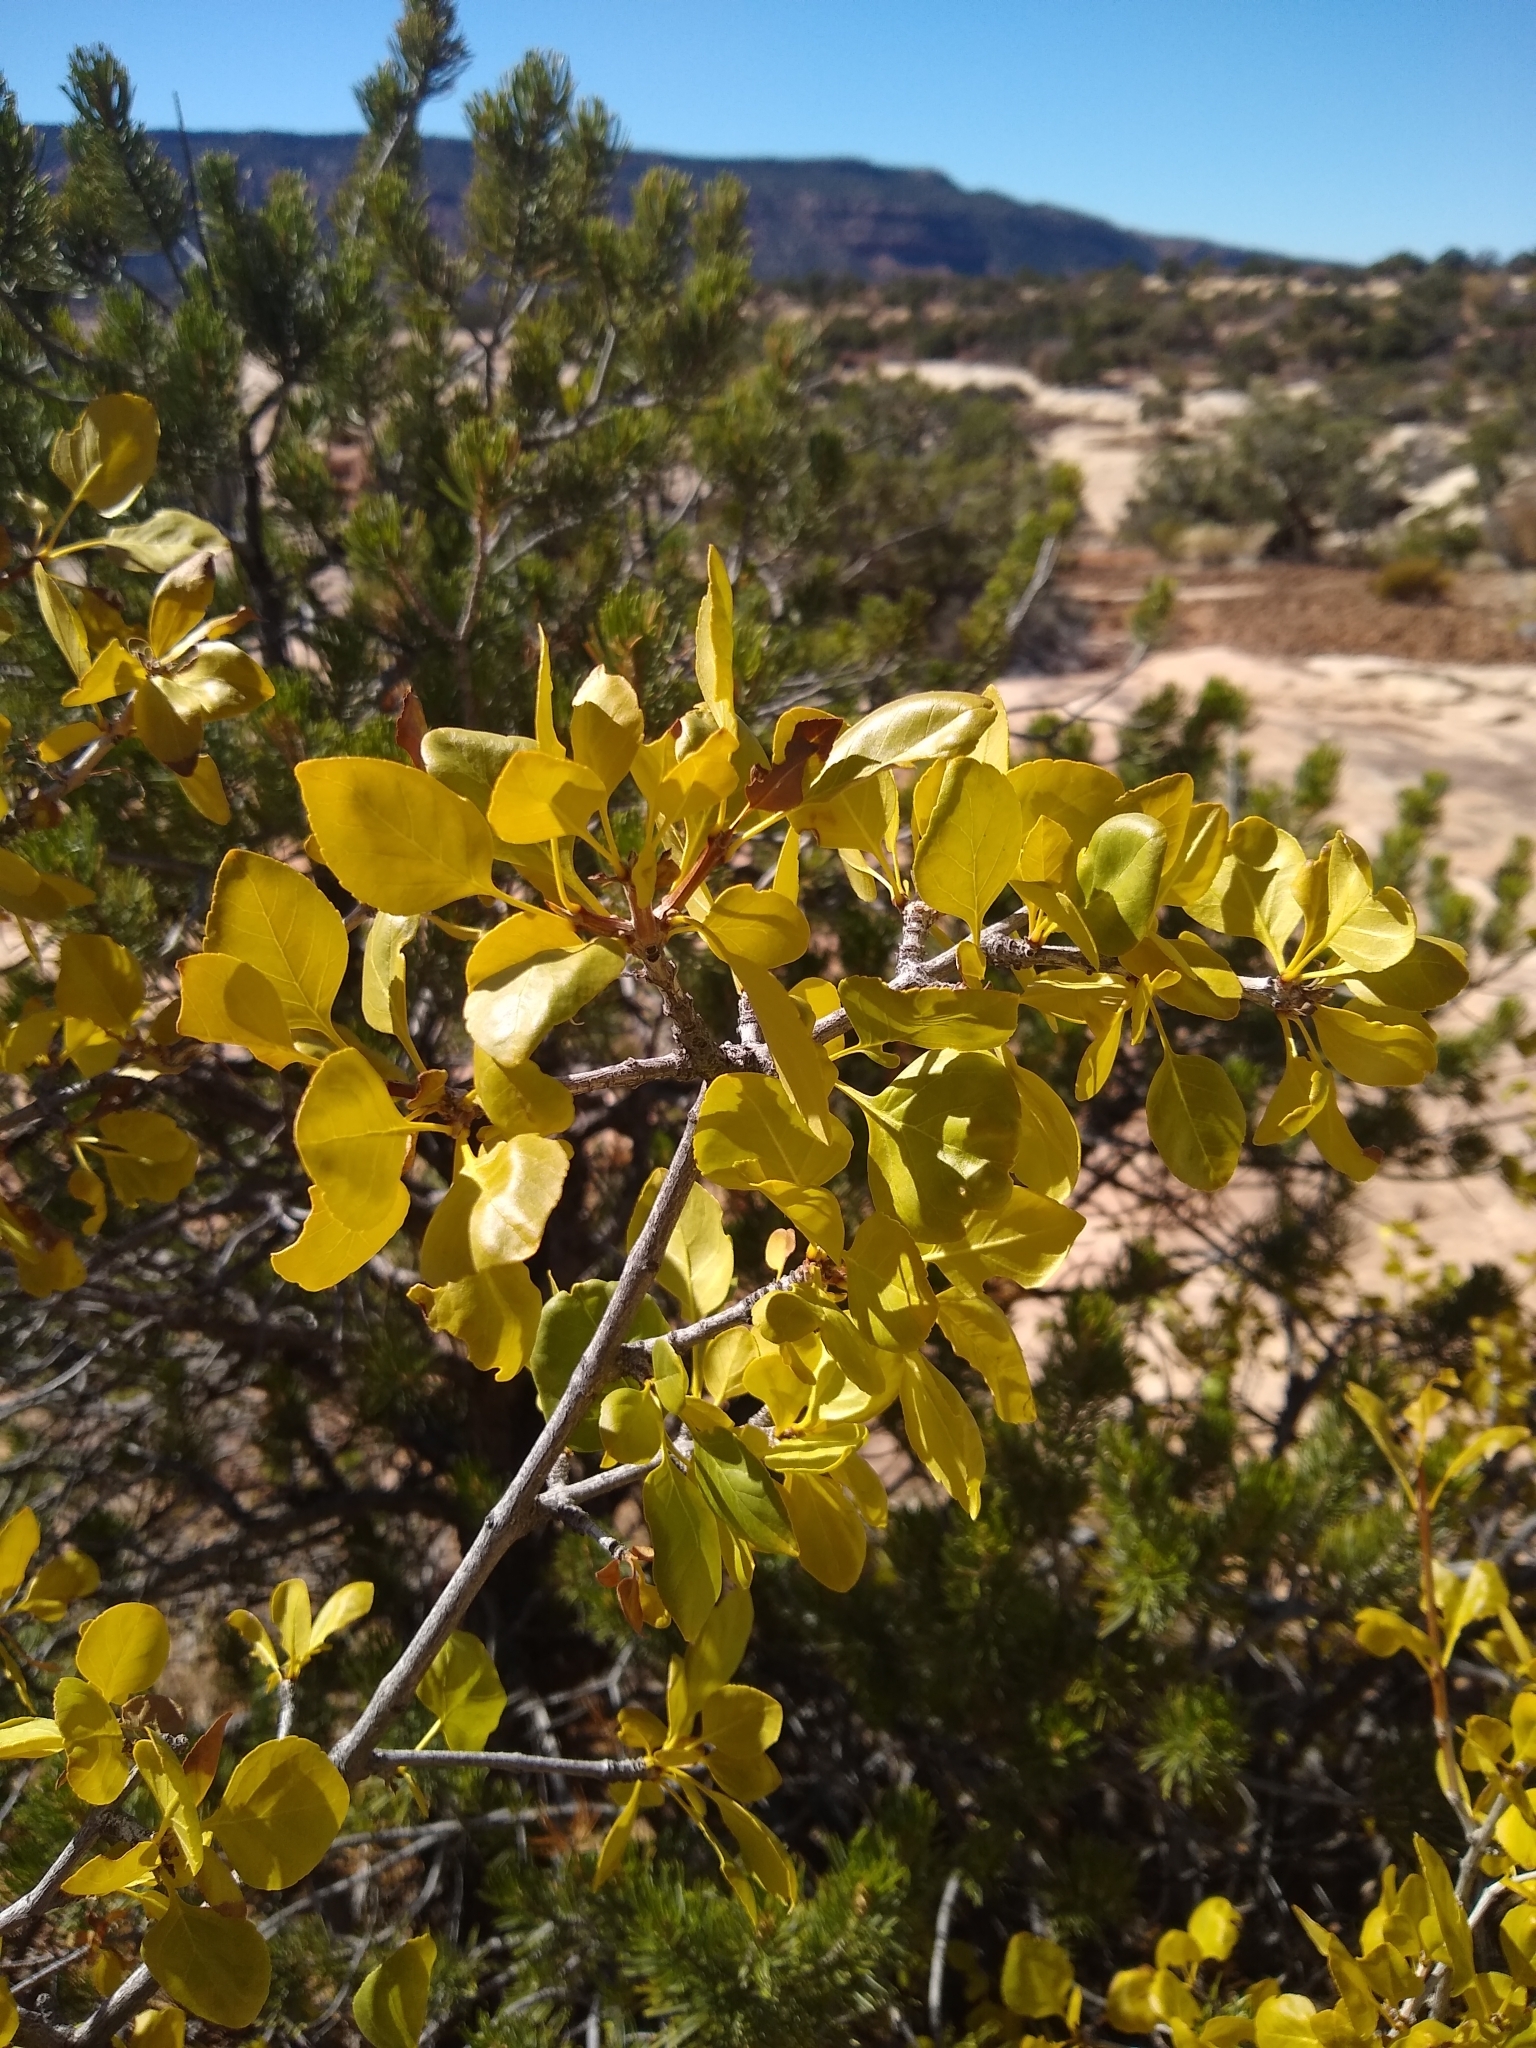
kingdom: Plantae
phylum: Tracheophyta
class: Magnoliopsida
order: Lamiales
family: Oleaceae
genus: Fraxinus
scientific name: Fraxinus anomala
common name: Utah ash
